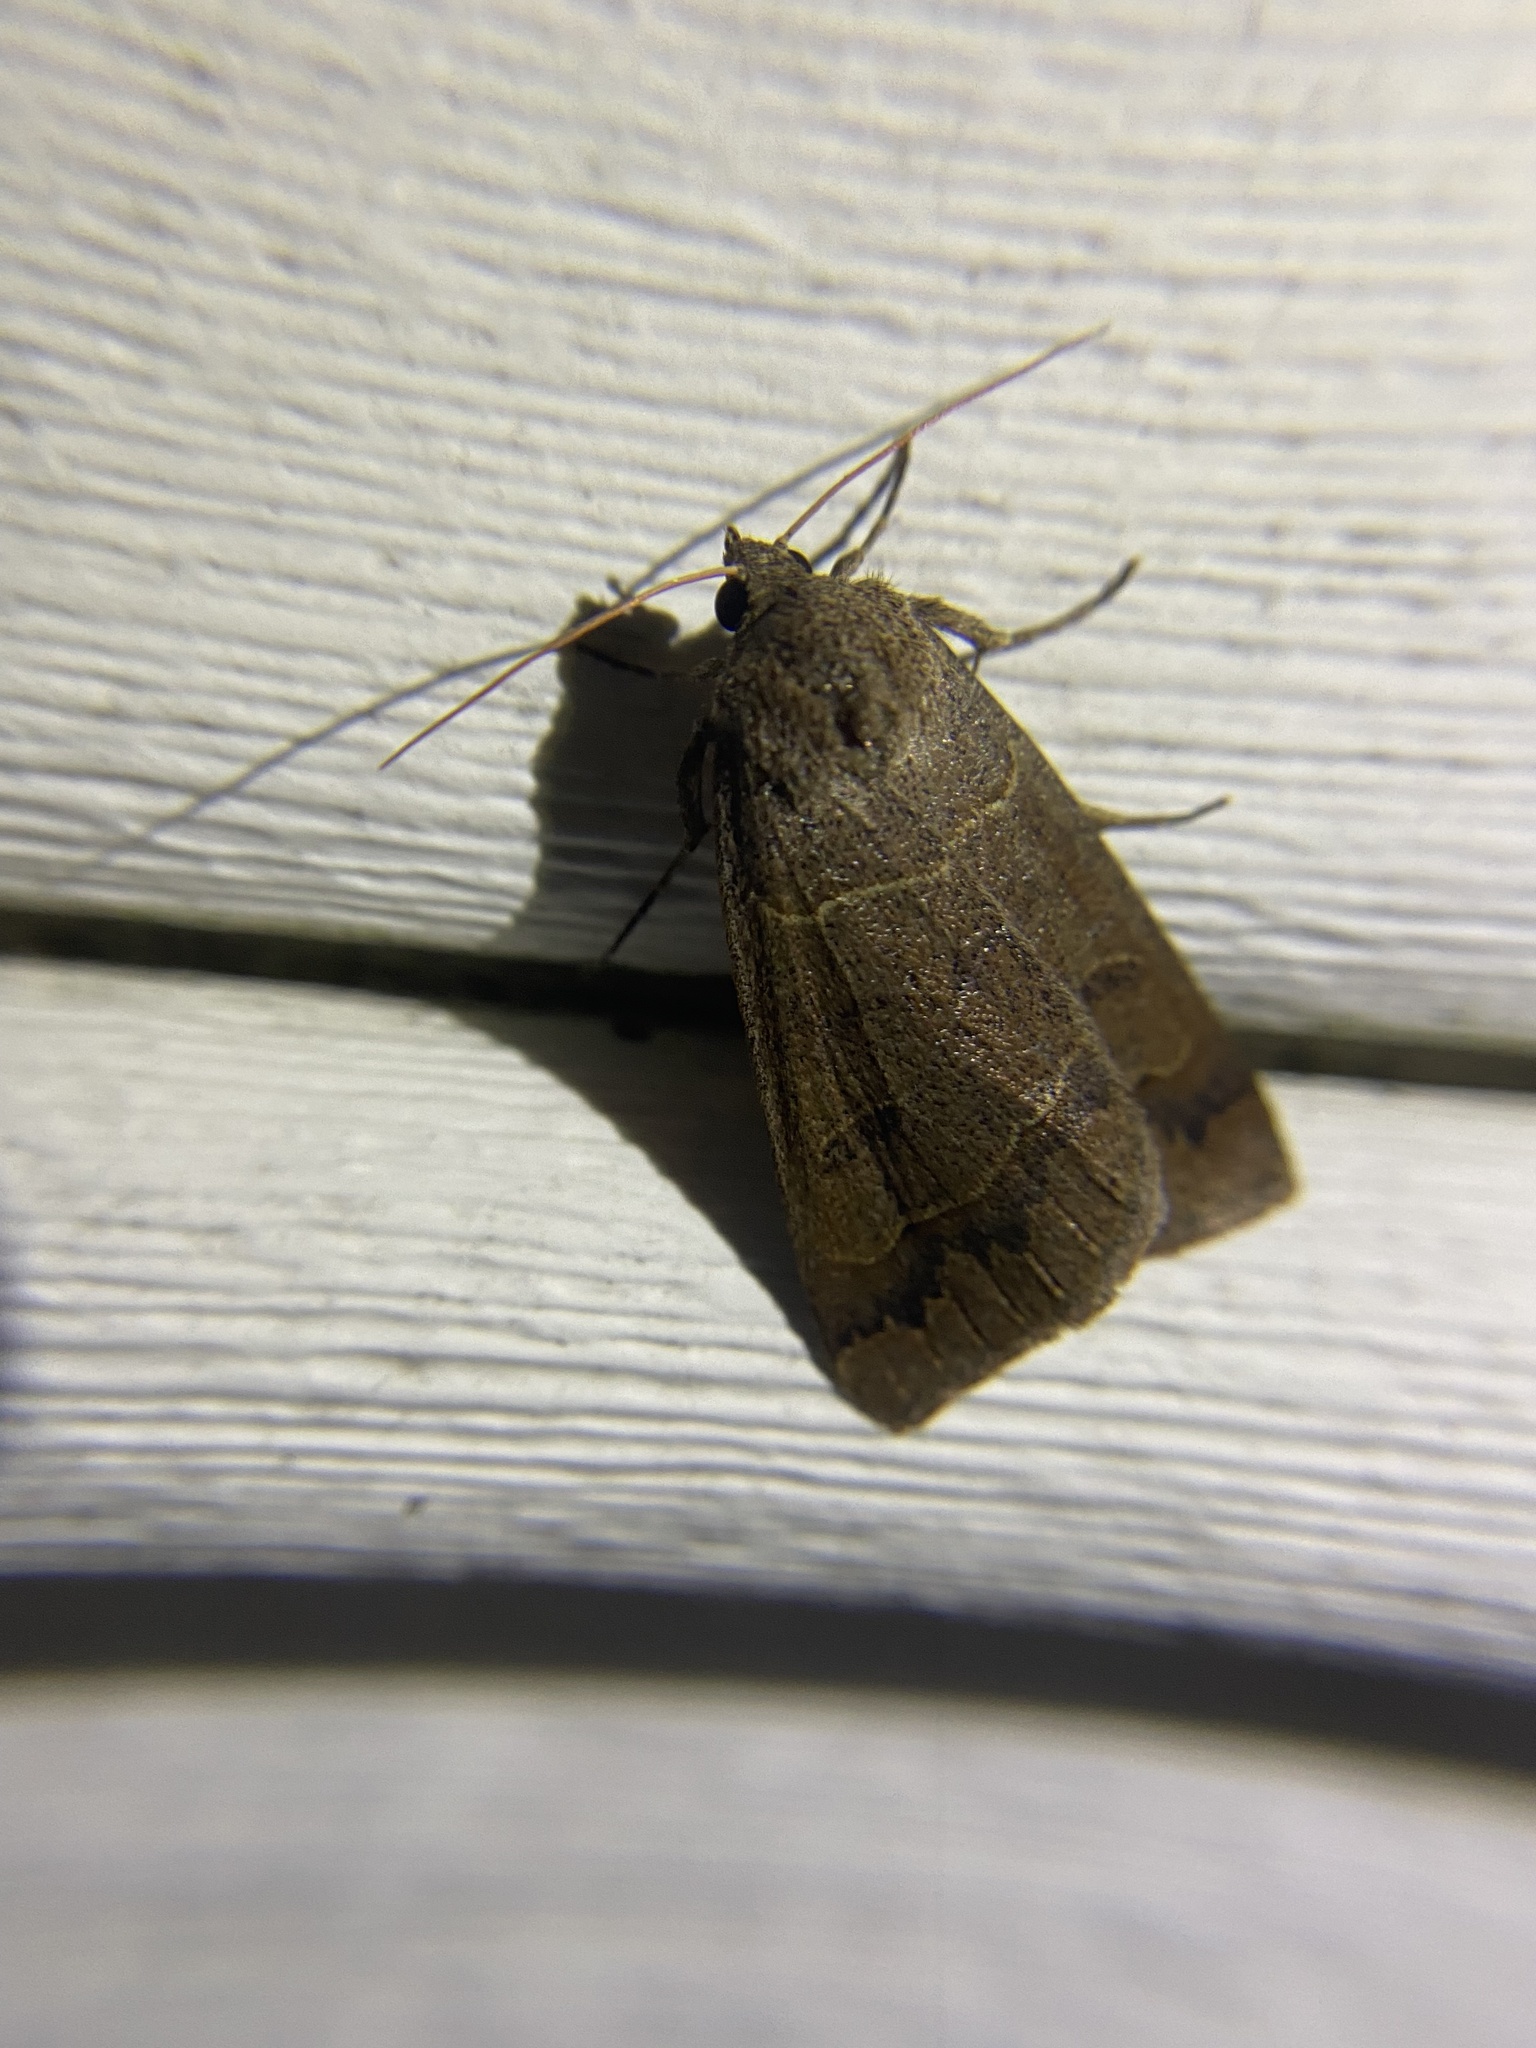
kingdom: Animalia
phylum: Arthropoda
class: Insecta
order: Lepidoptera
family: Erebidae
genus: Phoberia
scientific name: Phoberia atomaris
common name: Common oak moth
